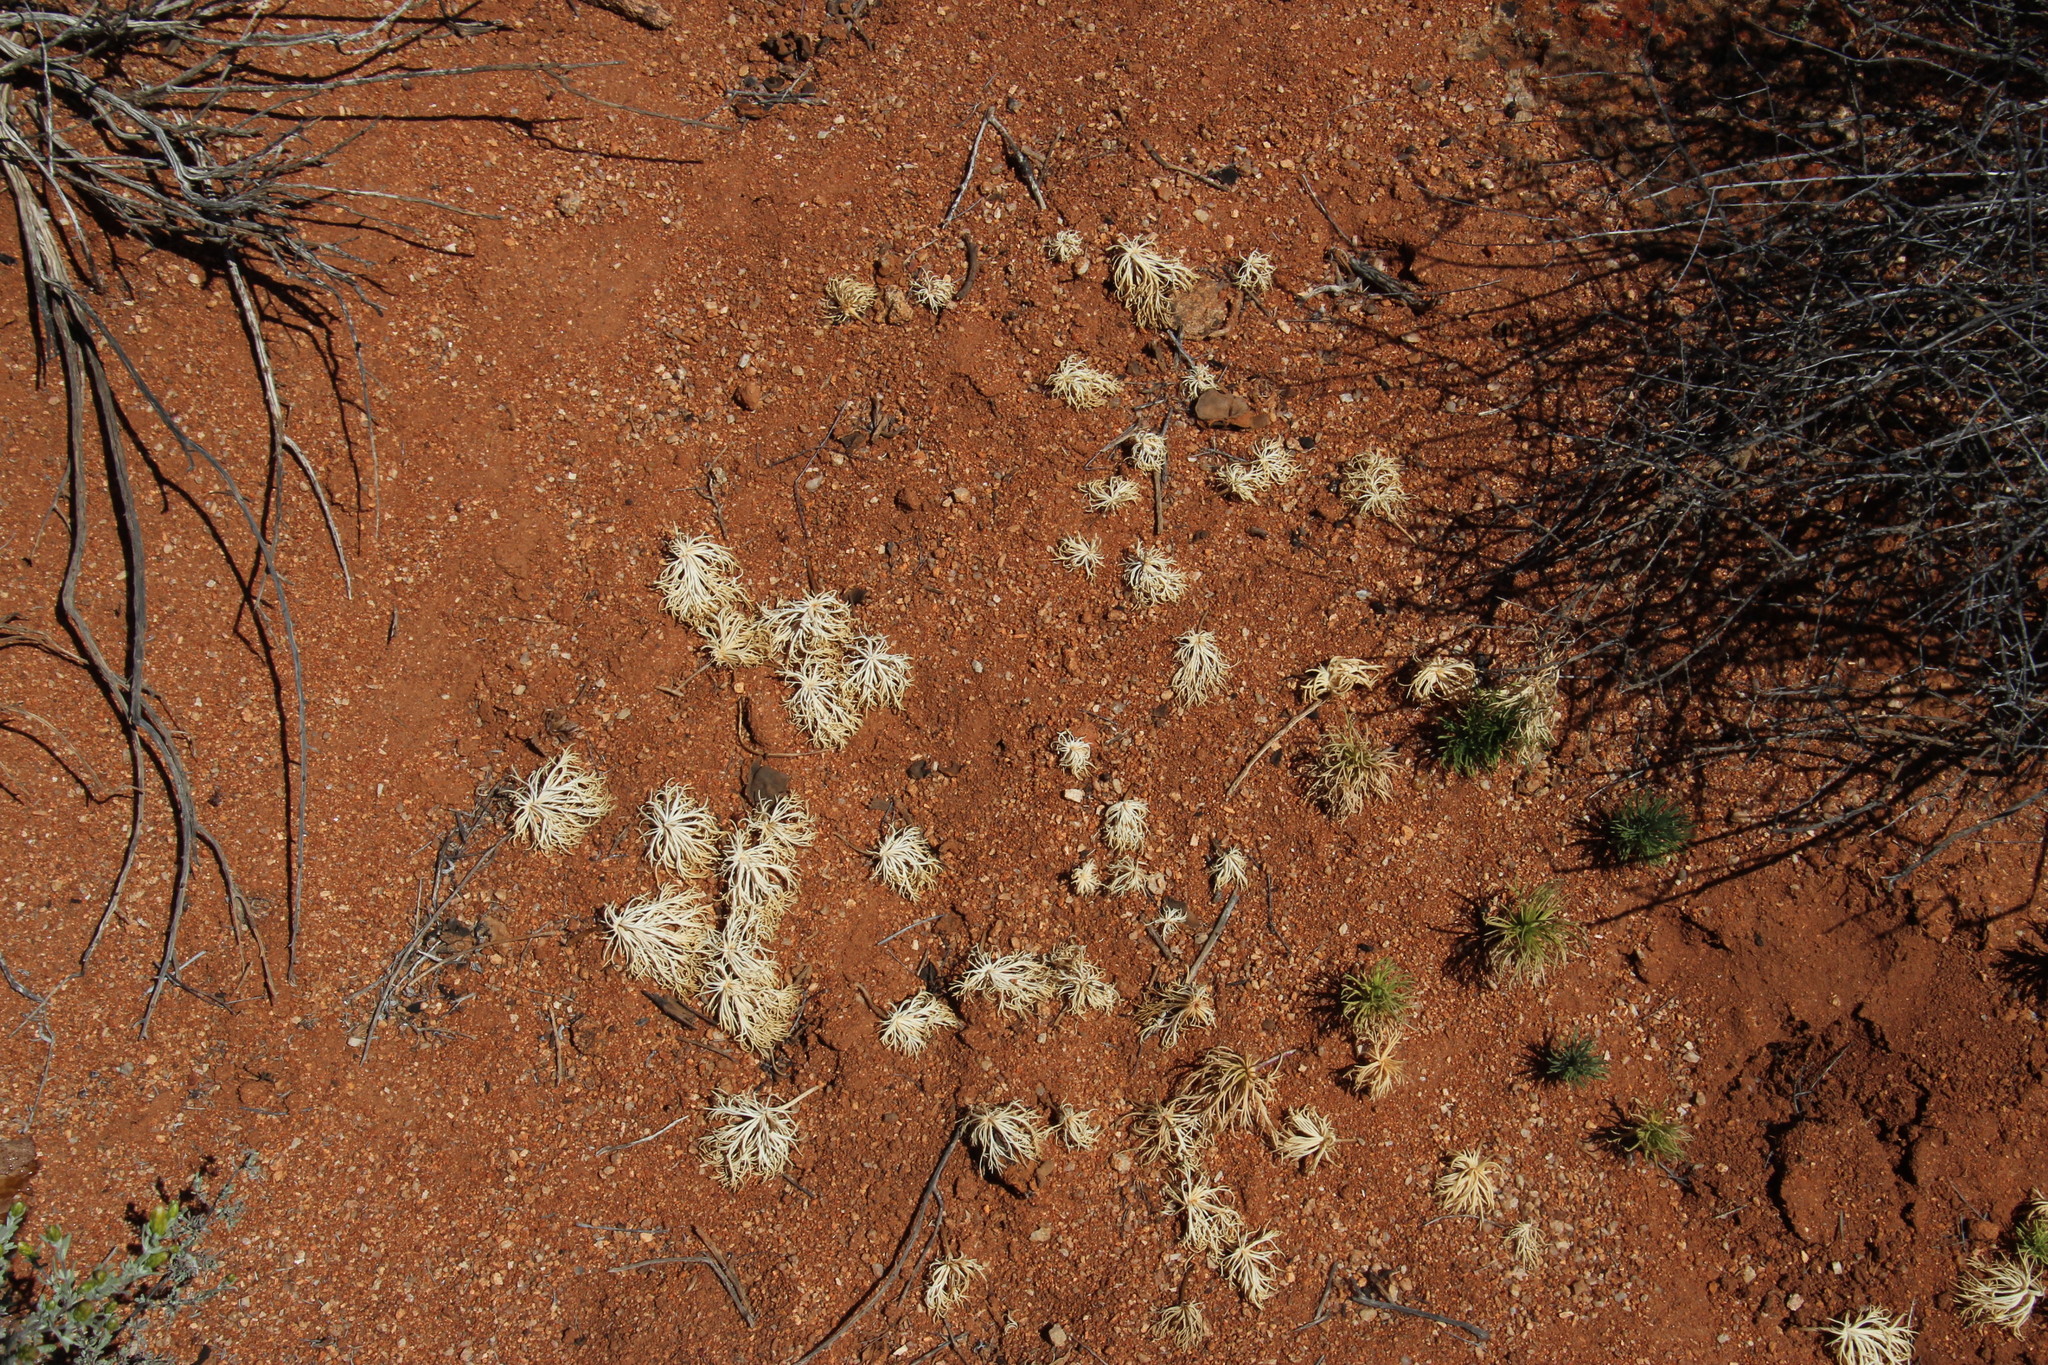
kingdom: Plantae
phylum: Tracheophyta
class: Liliopsida
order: Asparagales
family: Asparagaceae
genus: Eriospermum
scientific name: Eriospermum multifidum
